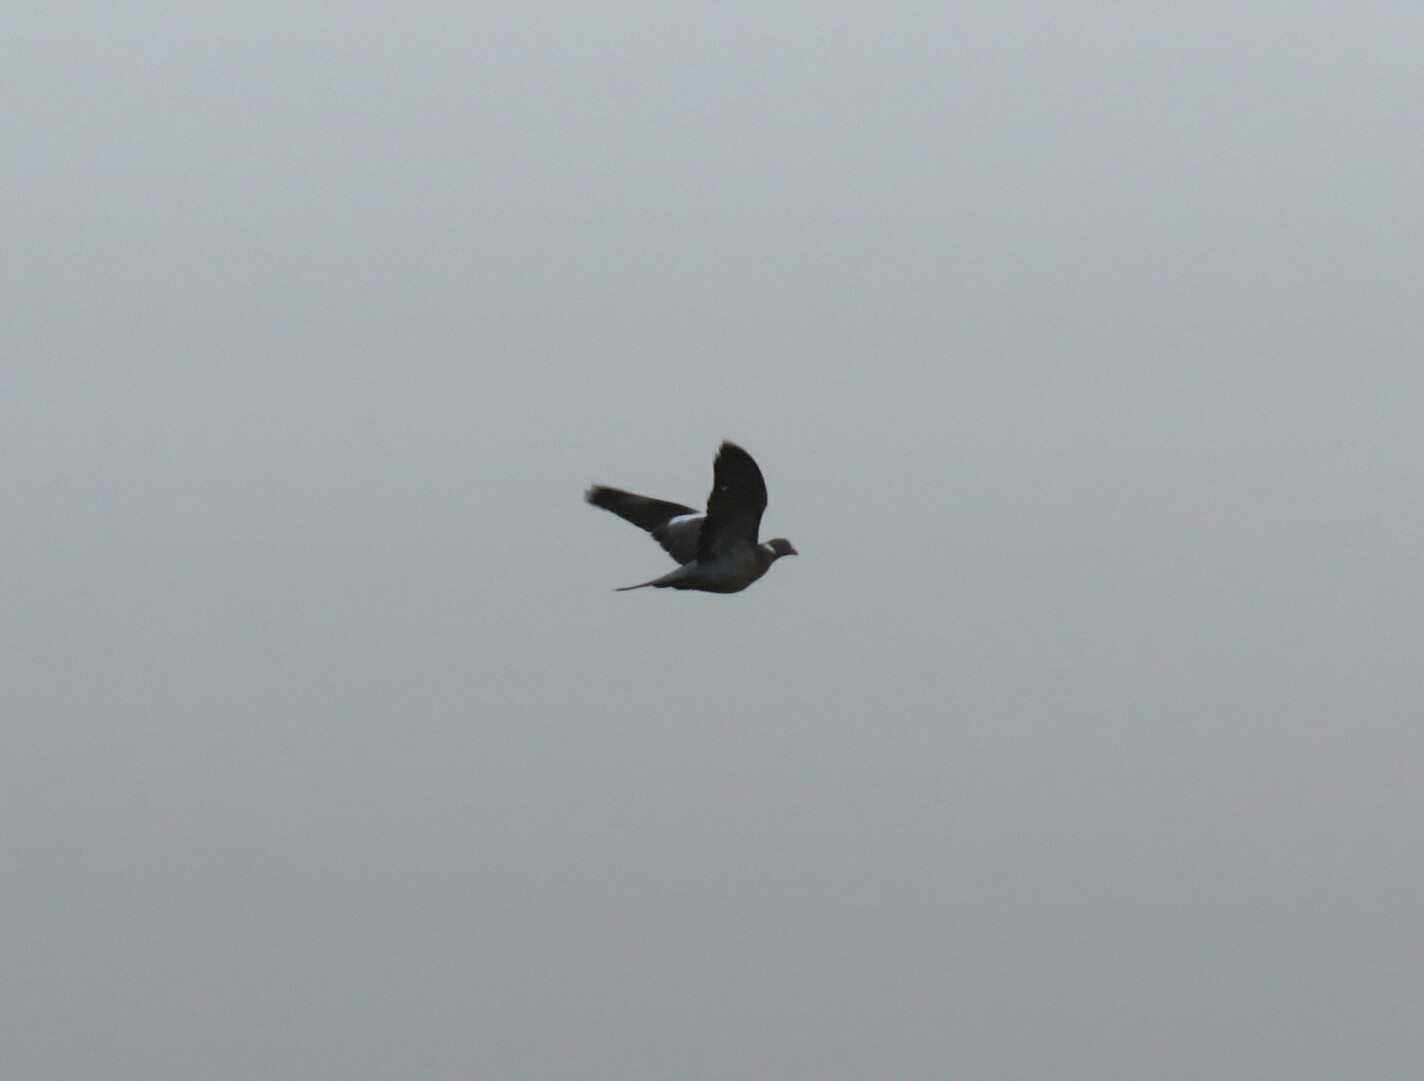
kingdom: Animalia
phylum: Chordata
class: Aves
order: Columbiformes
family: Columbidae
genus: Columba
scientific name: Columba palumbus
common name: Common wood pigeon
